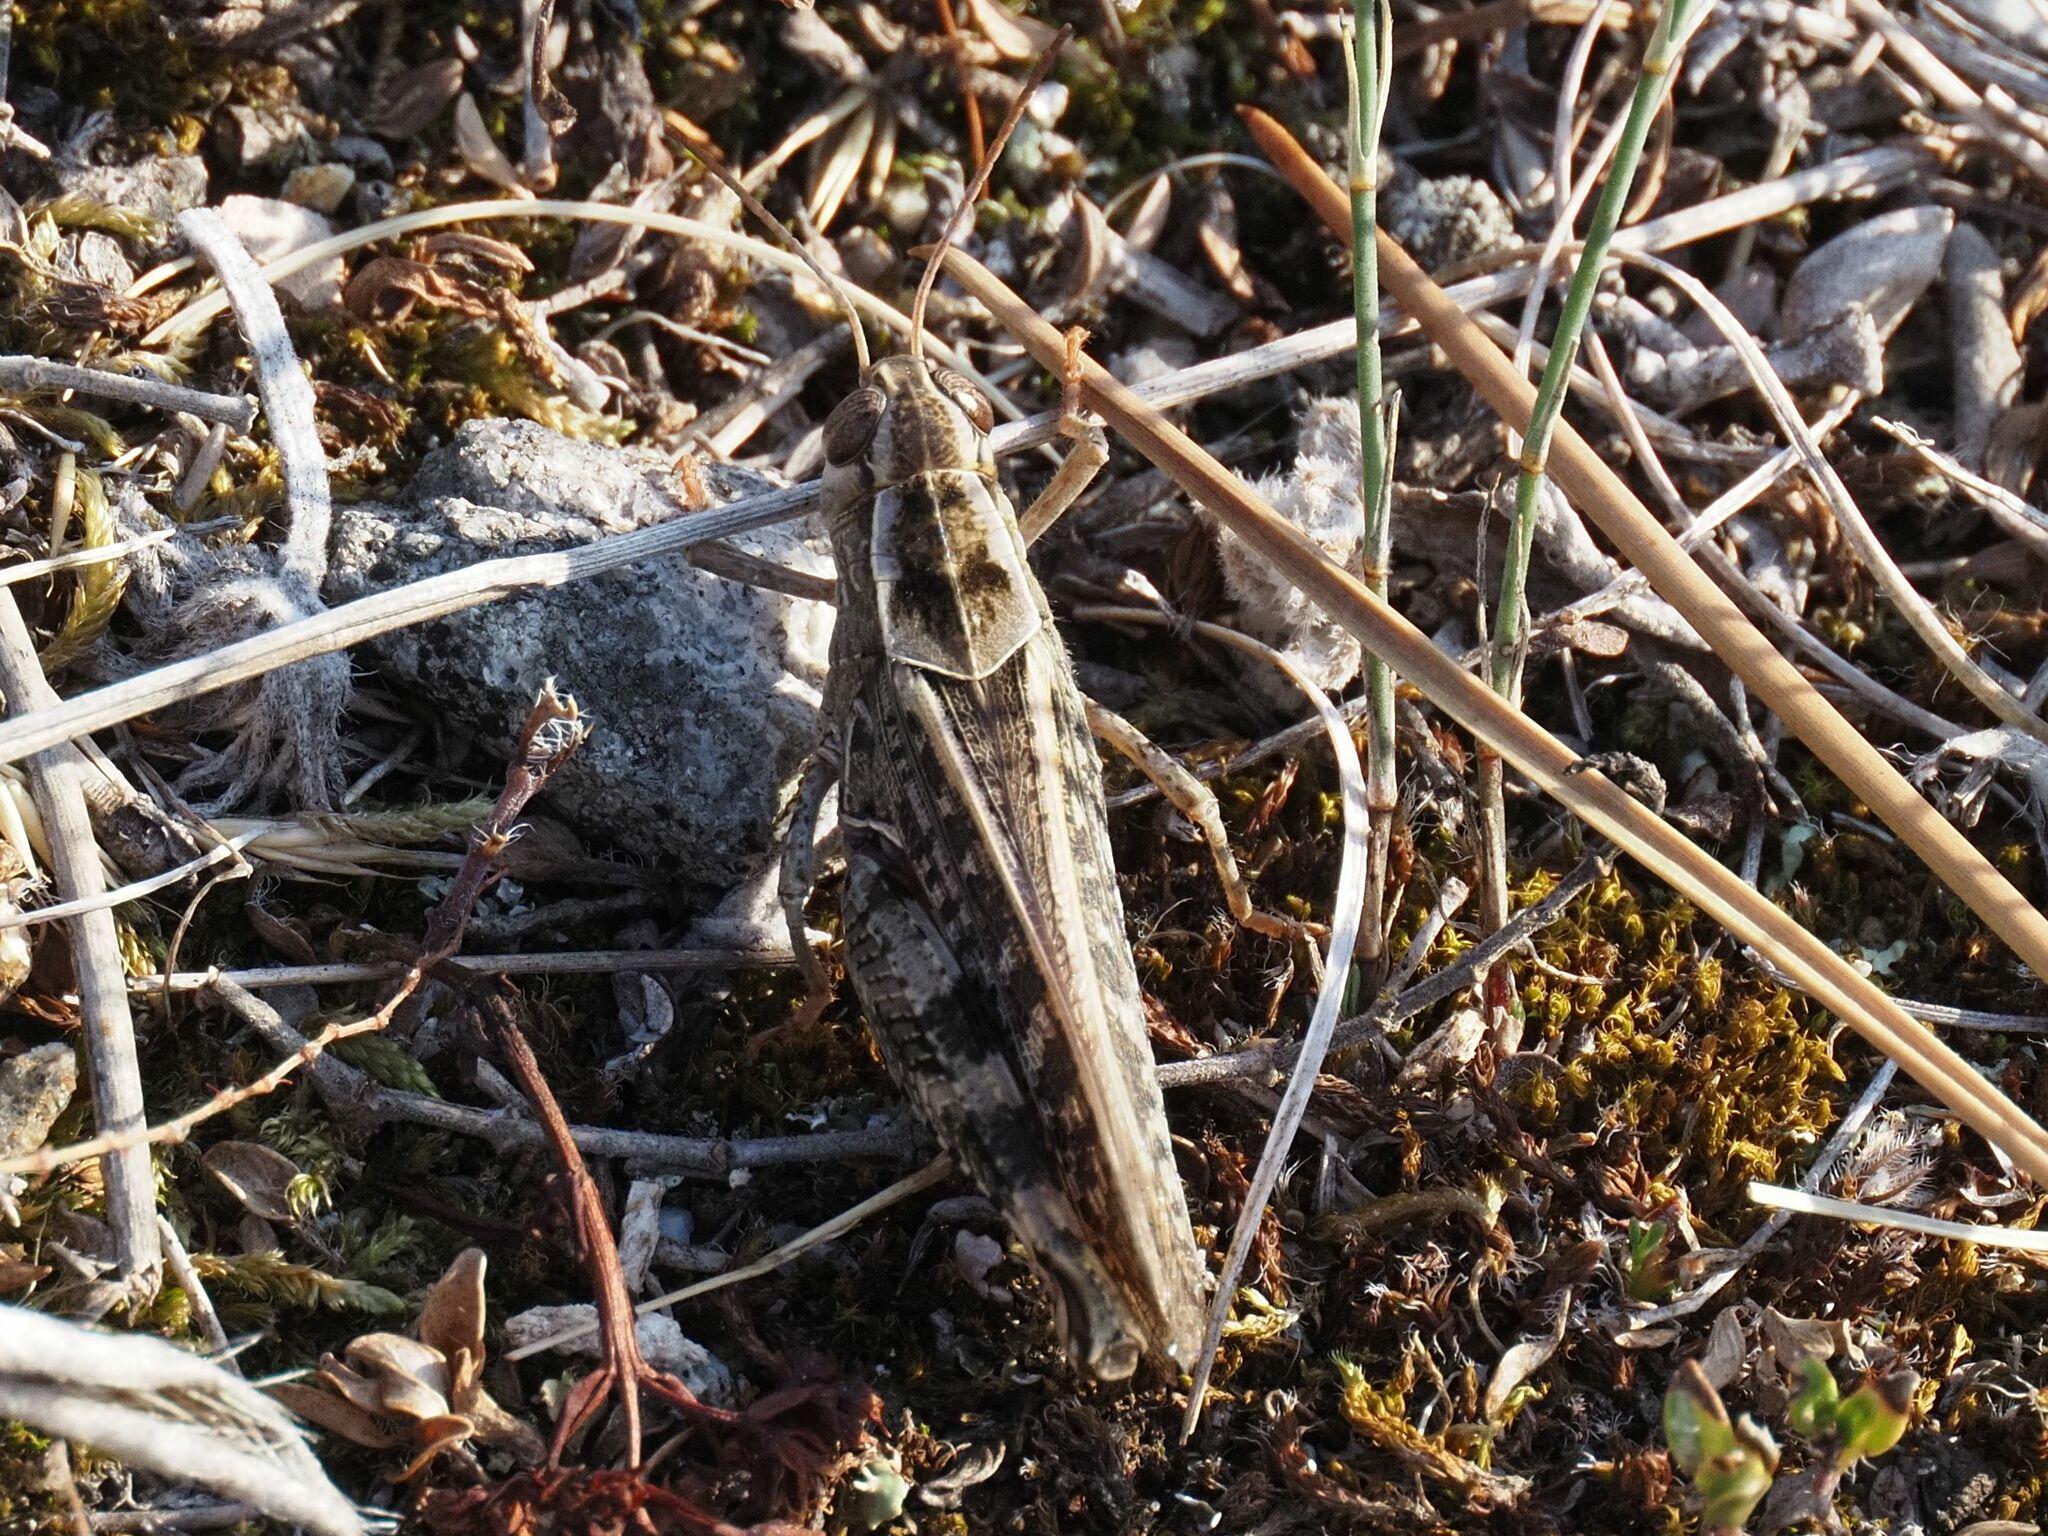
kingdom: Animalia
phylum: Arthropoda
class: Insecta
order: Orthoptera
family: Acrididae
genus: Calliptamus
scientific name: Calliptamus italicus
